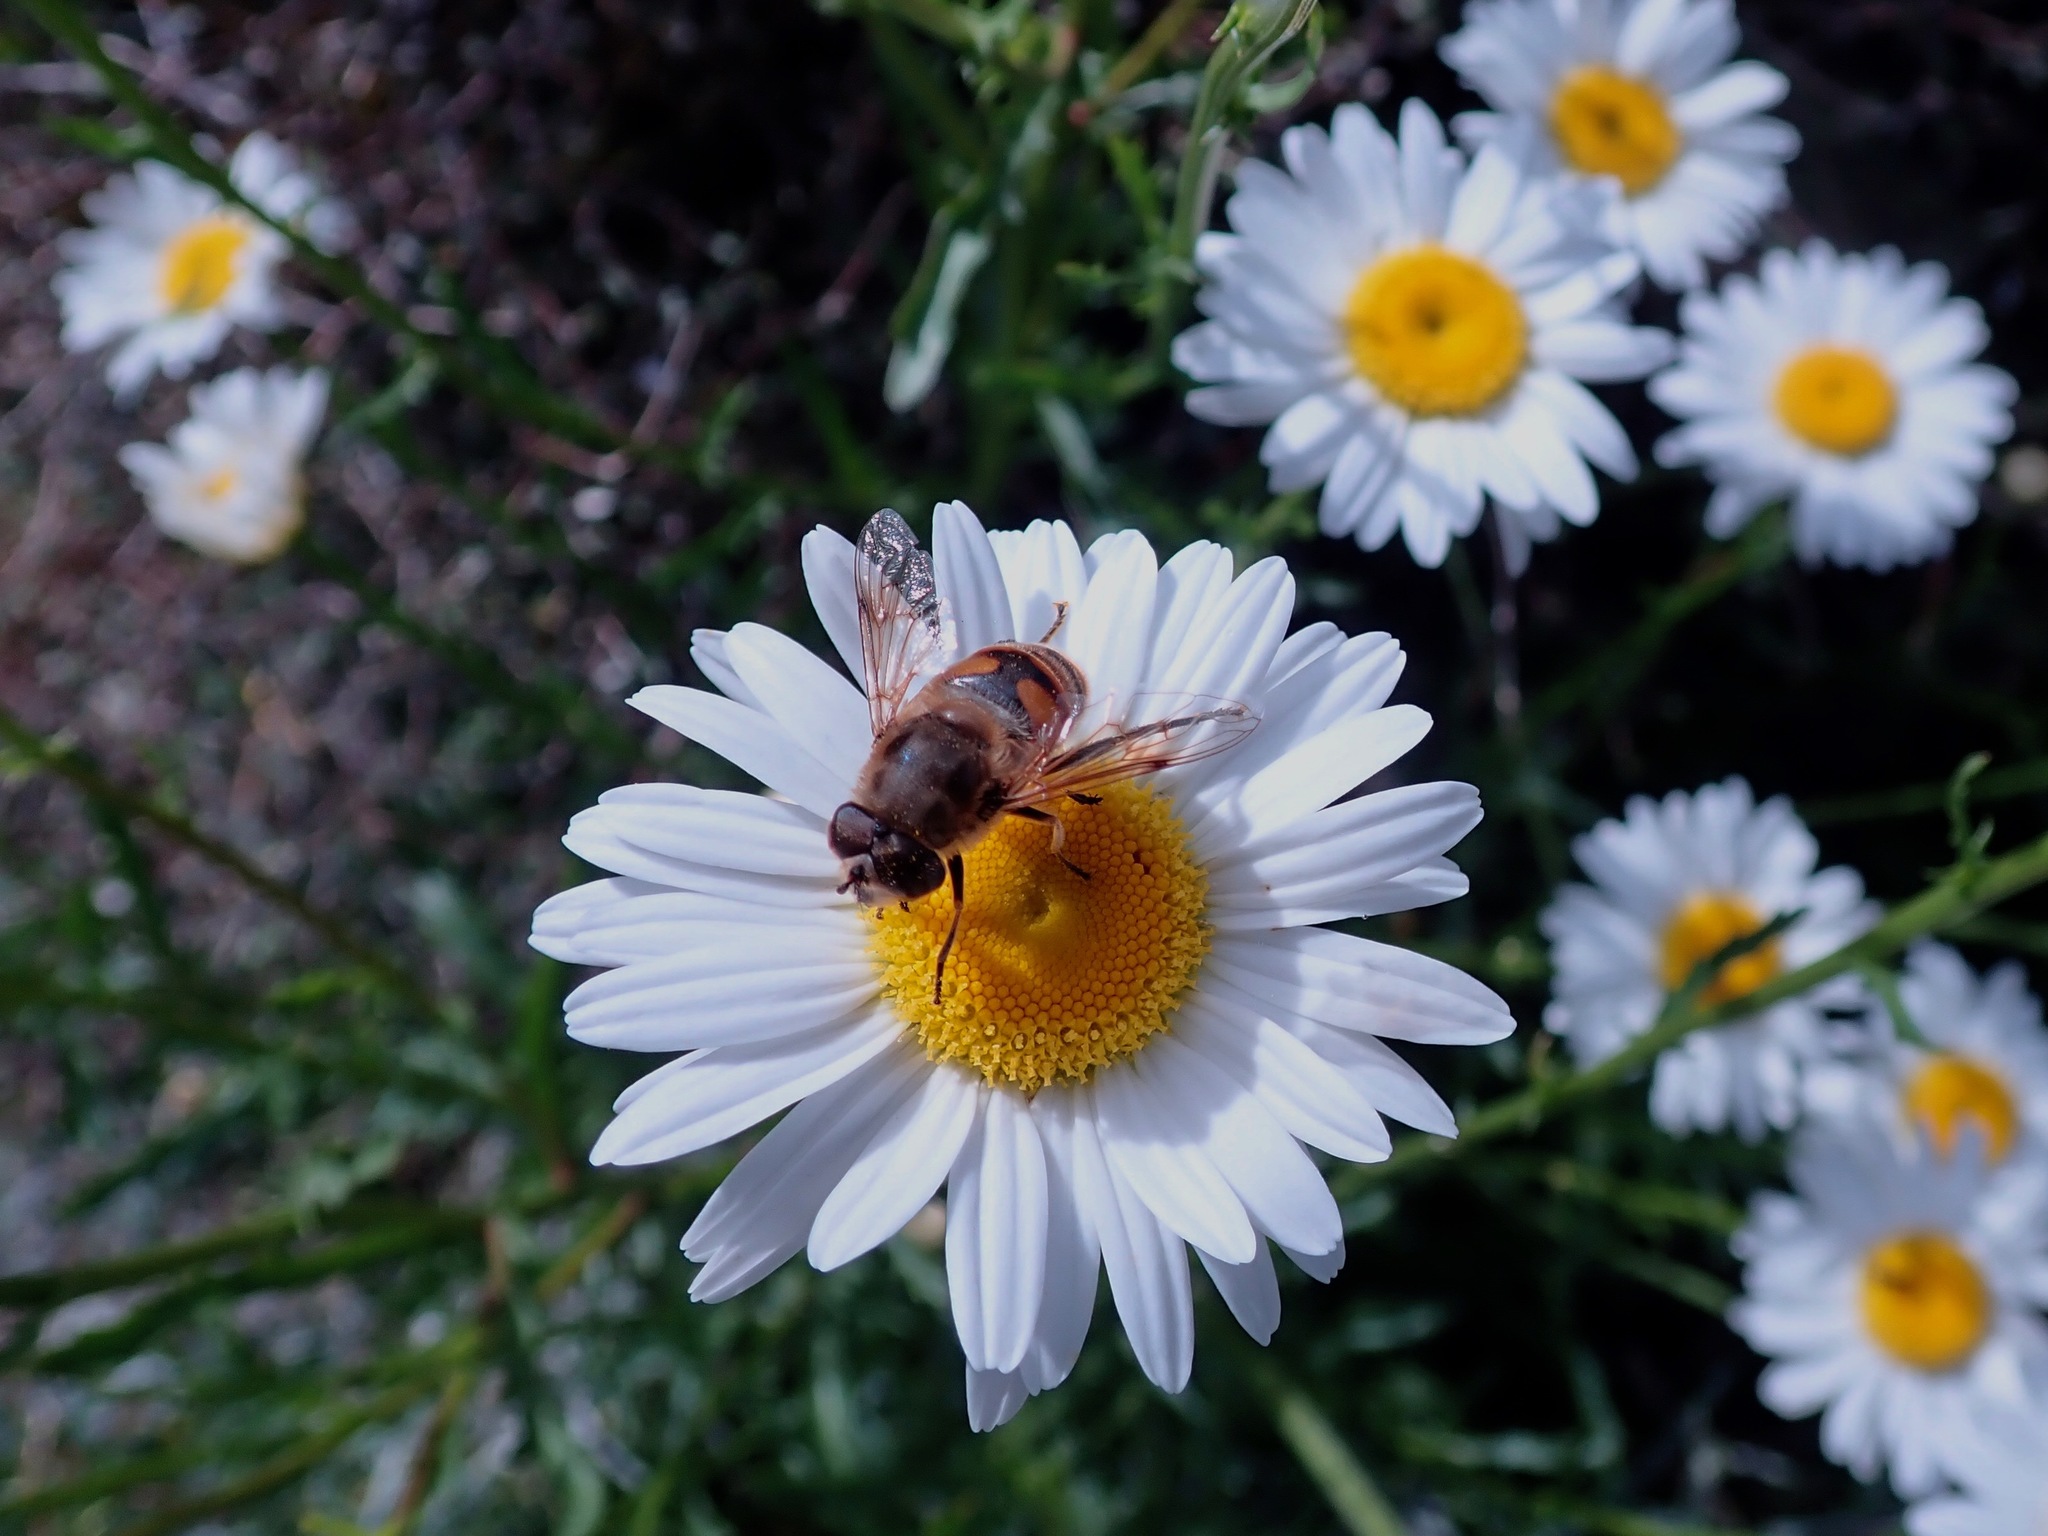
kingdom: Animalia
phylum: Arthropoda
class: Insecta
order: Diptera
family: Syrphidae
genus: Eristalis
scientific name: Eristalis tenax
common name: Drone fly
